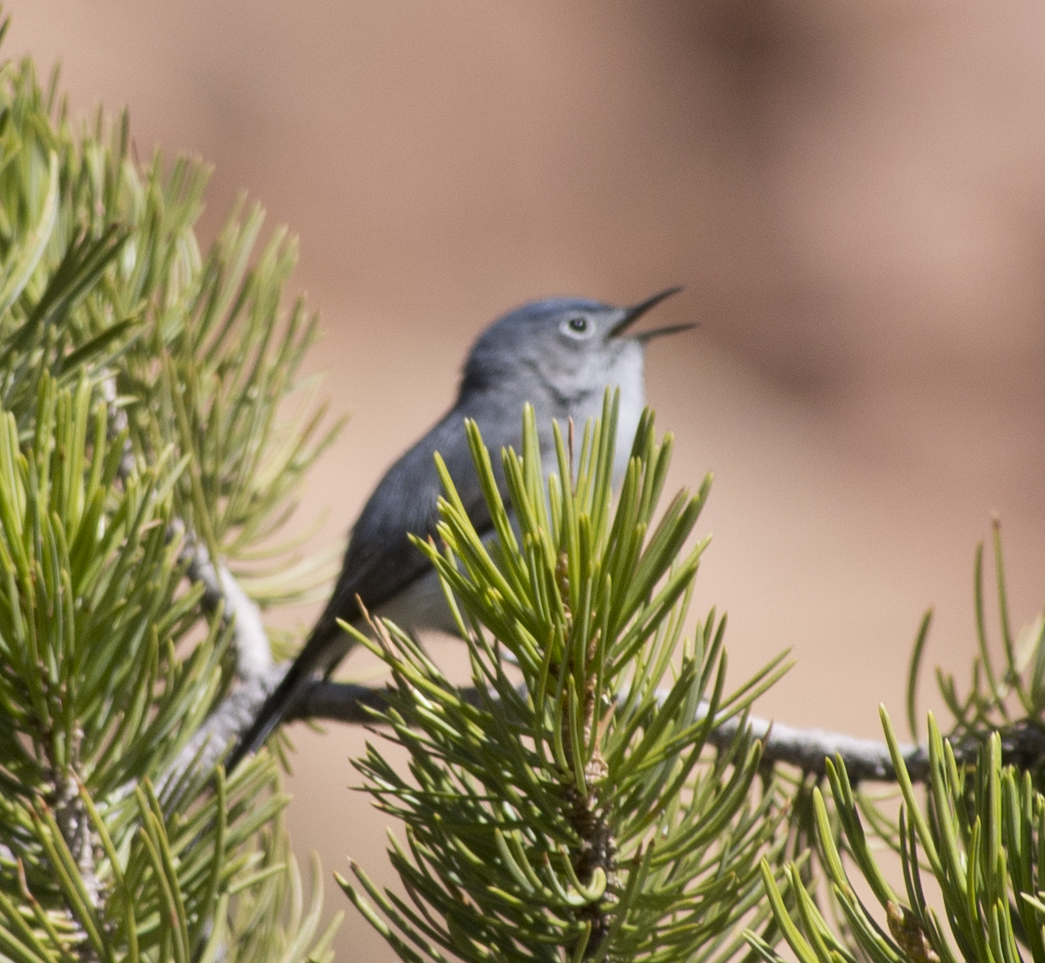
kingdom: Animalia
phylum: Chordata
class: Aves
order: Passeriformes
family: Polioptilidae
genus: Polioptila
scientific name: Polioptila caerulea
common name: Blue-gray gnatcatcher
